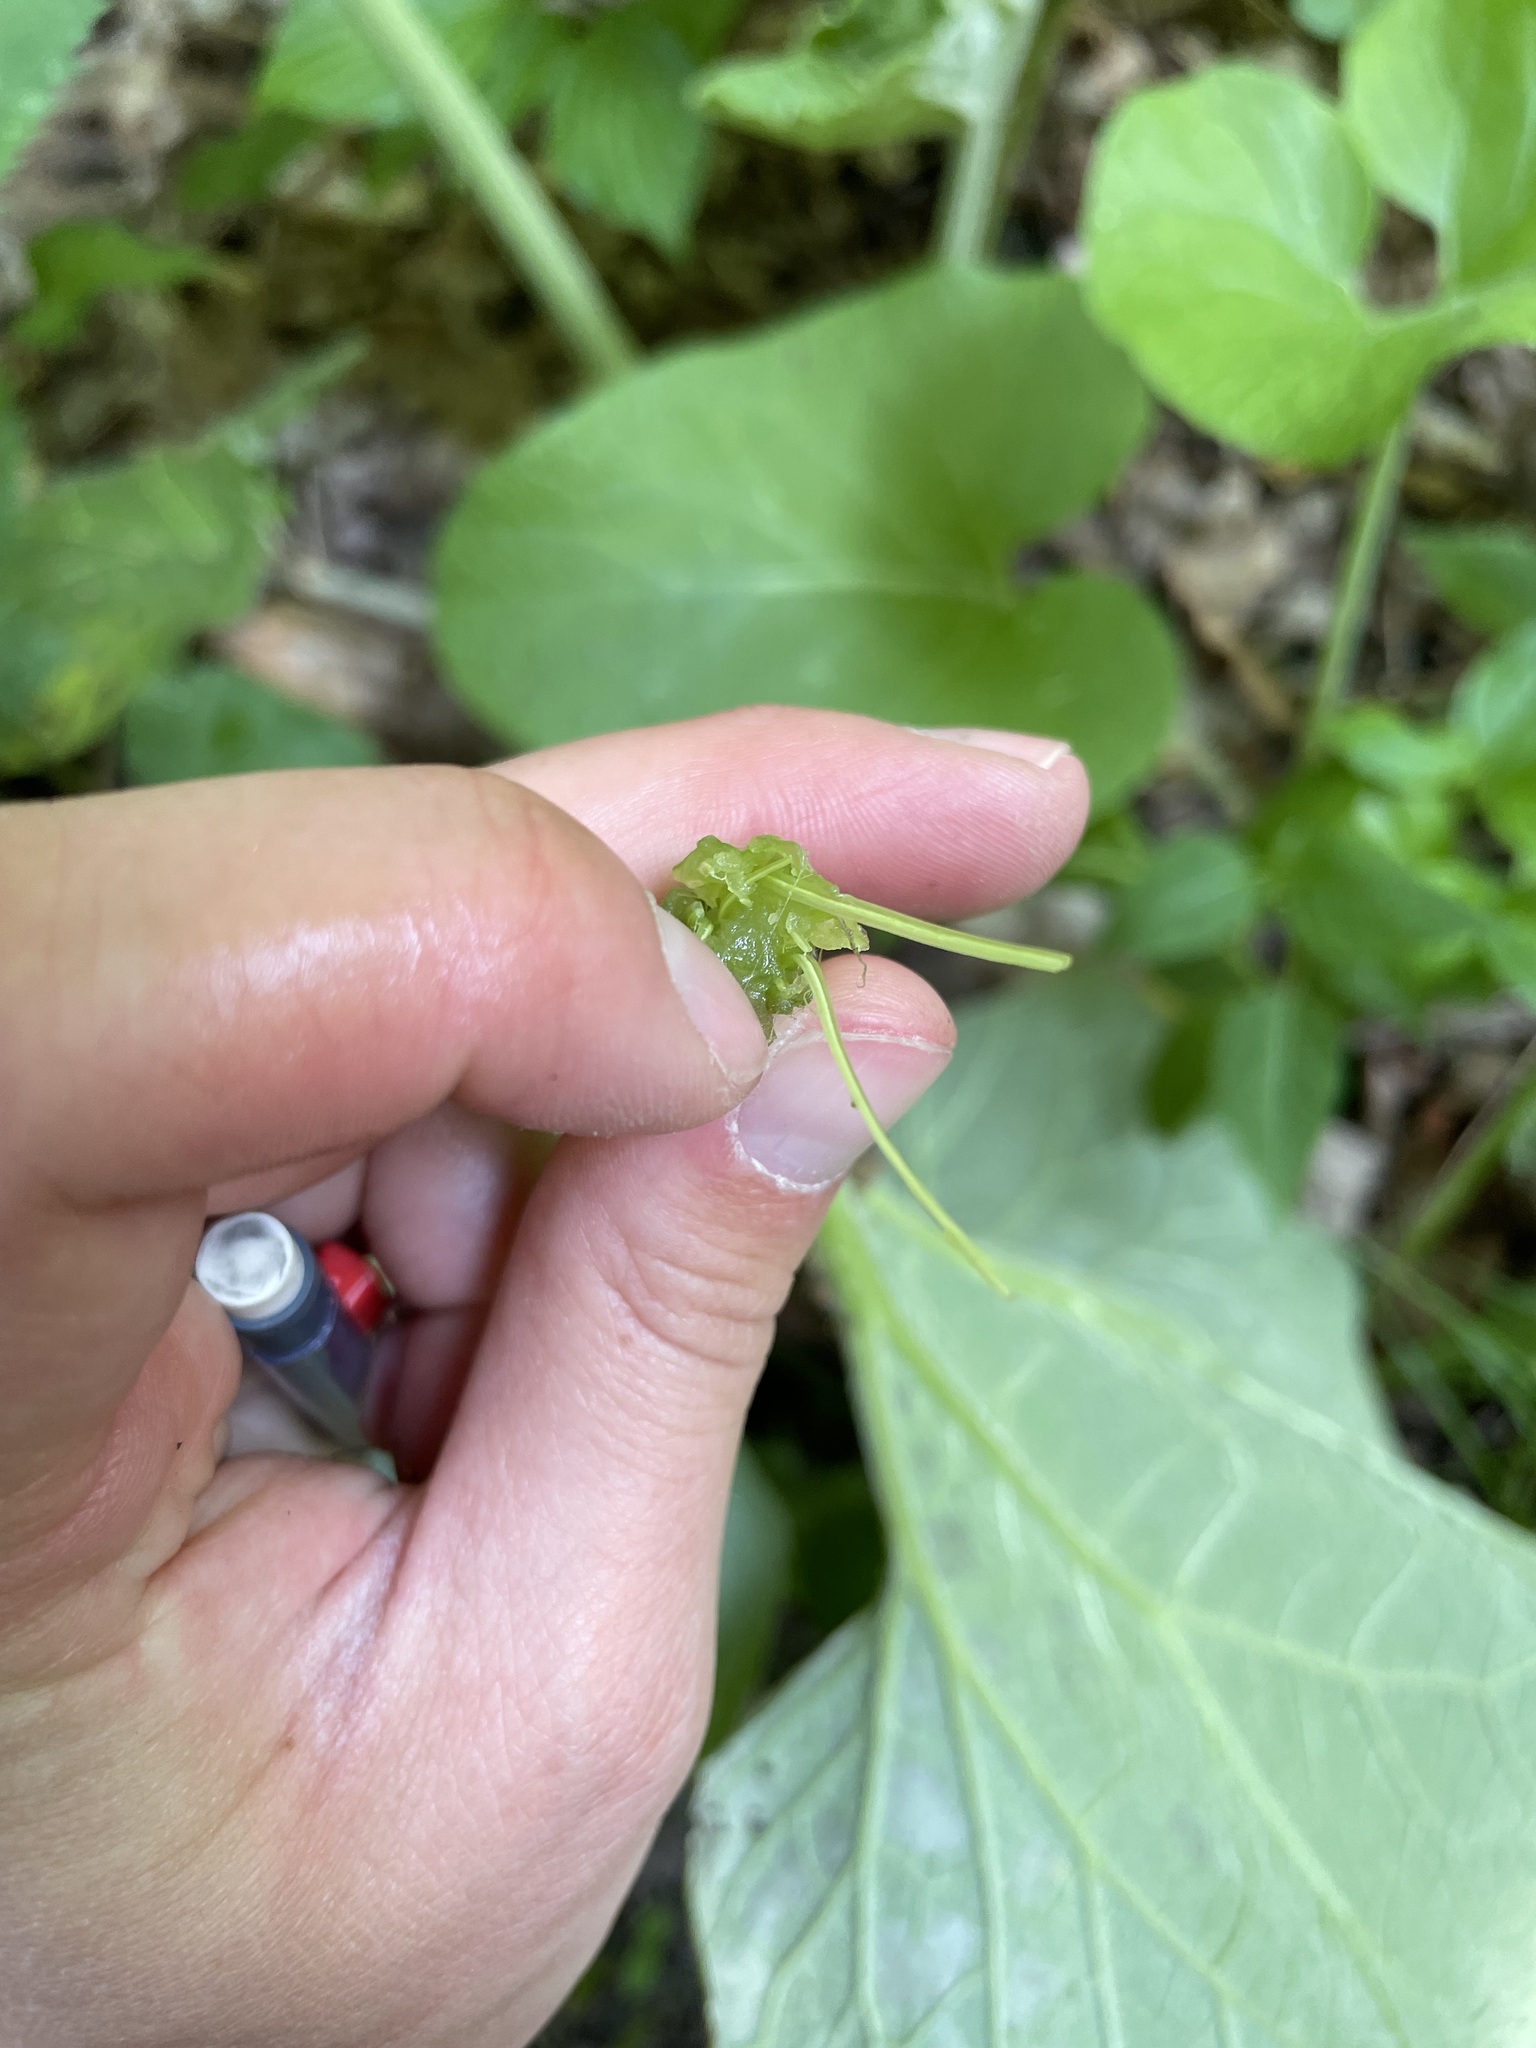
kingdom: Plantae
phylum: Tracheophyta
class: Magnoliopsida
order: Asterales
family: Asteraceae
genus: Arctium
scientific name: Arctium lappa
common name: Greater burdock
